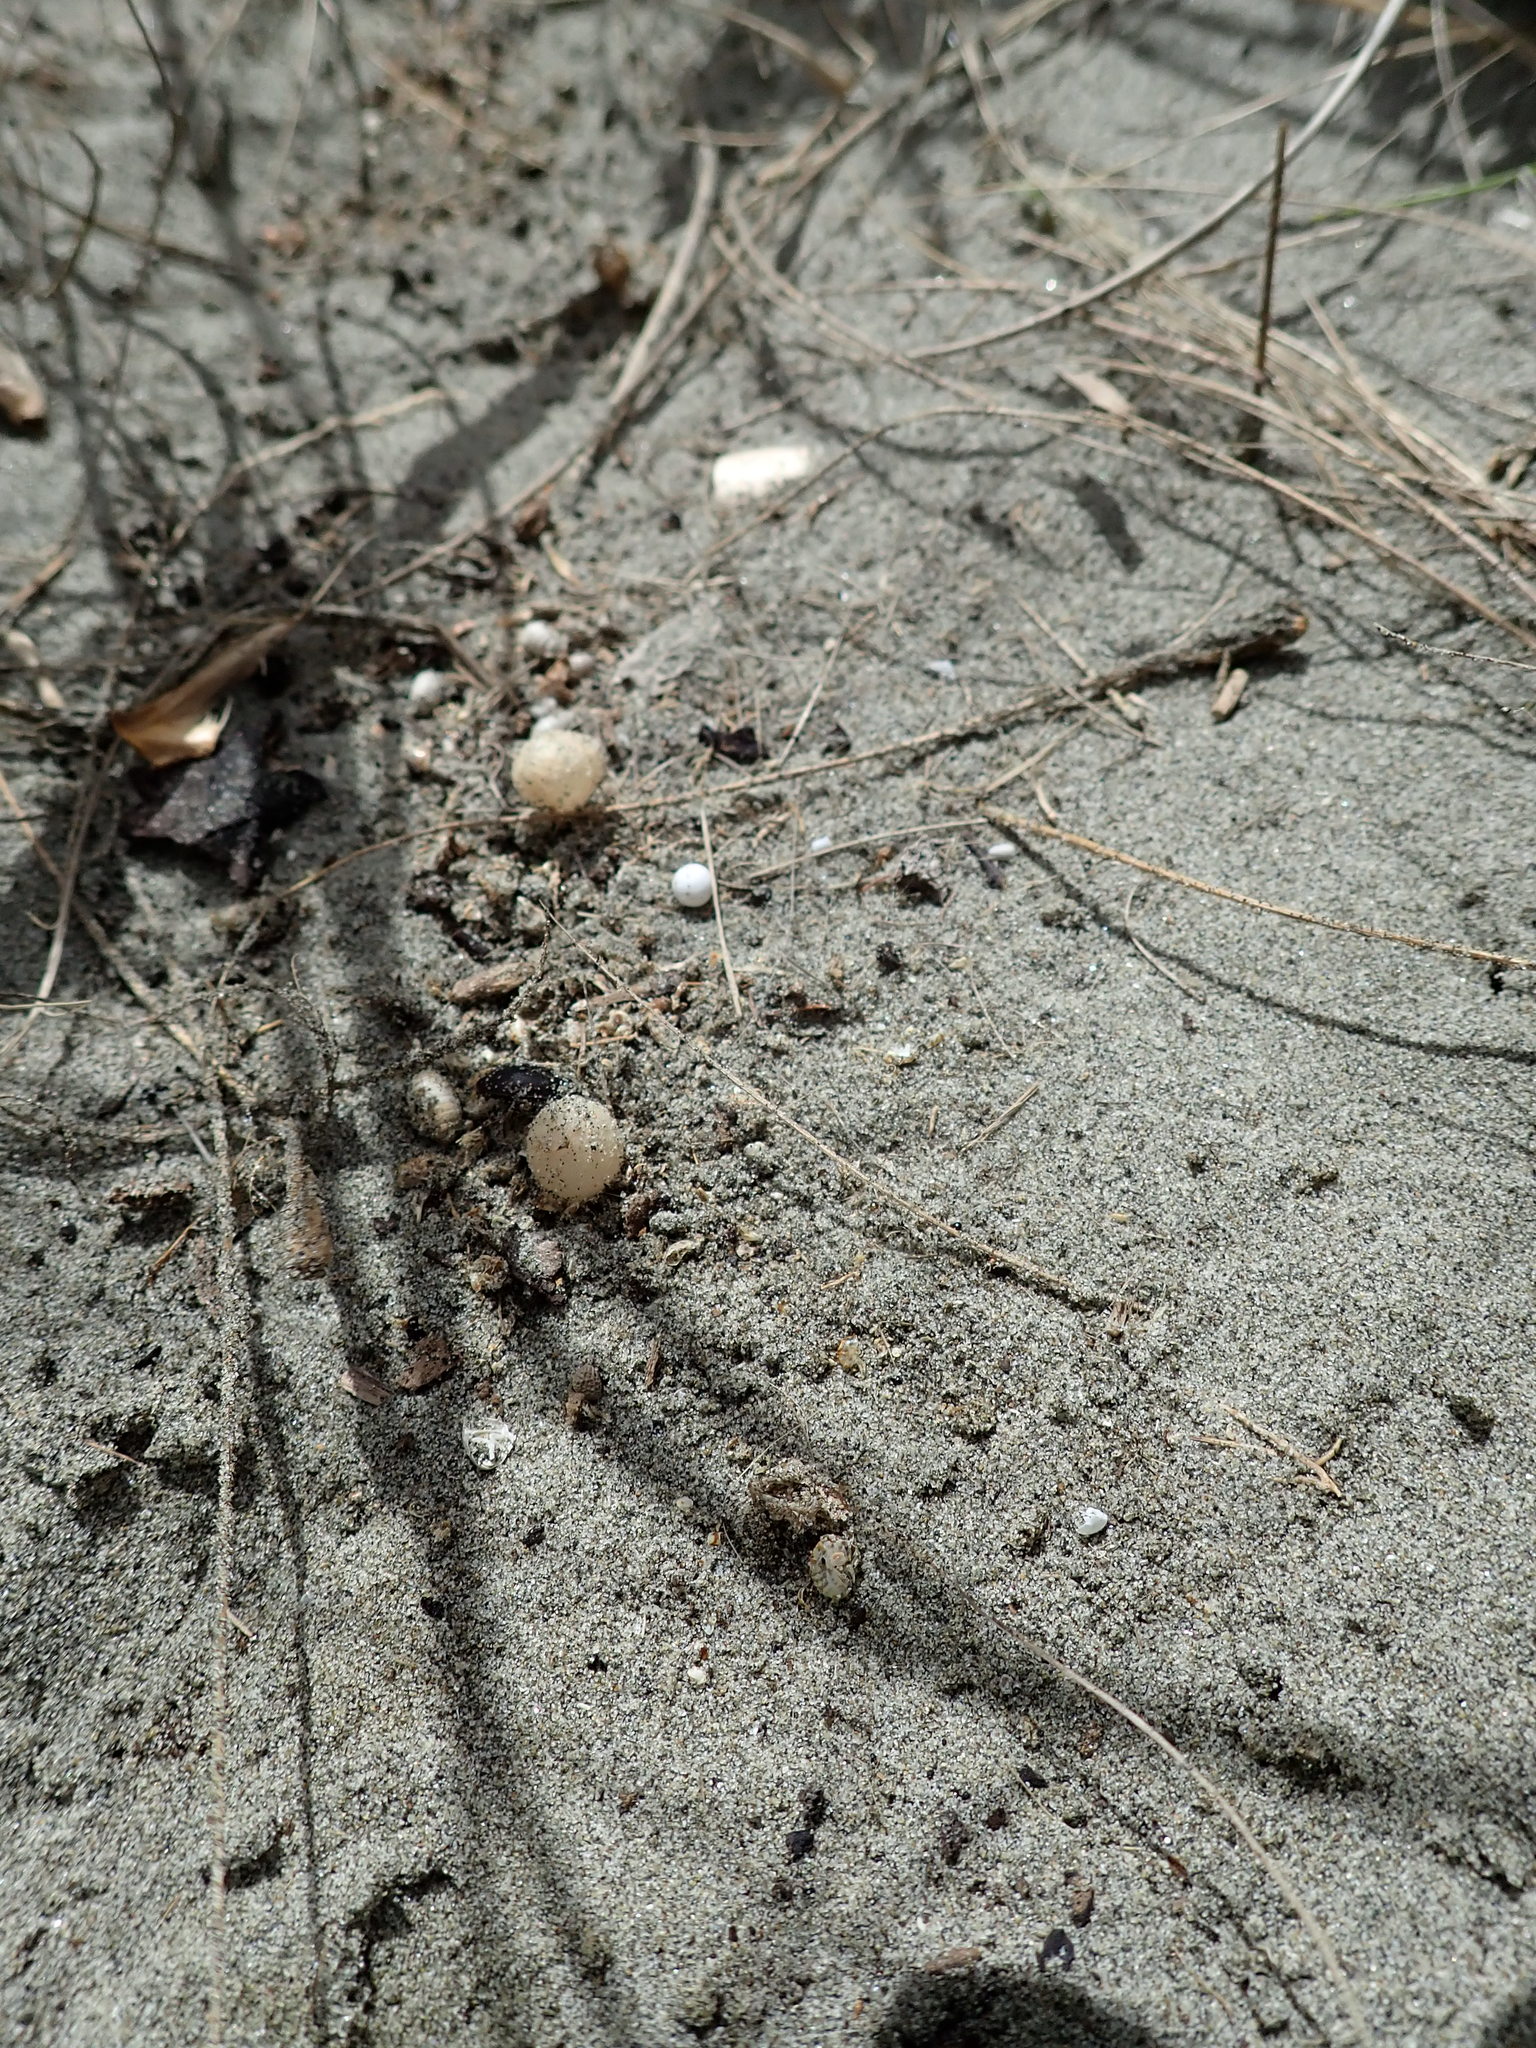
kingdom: Animalia
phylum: Arthropoda
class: Arachnida
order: Araneae
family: Theridiidae
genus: Latrodectus
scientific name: Latrodectus katipo
